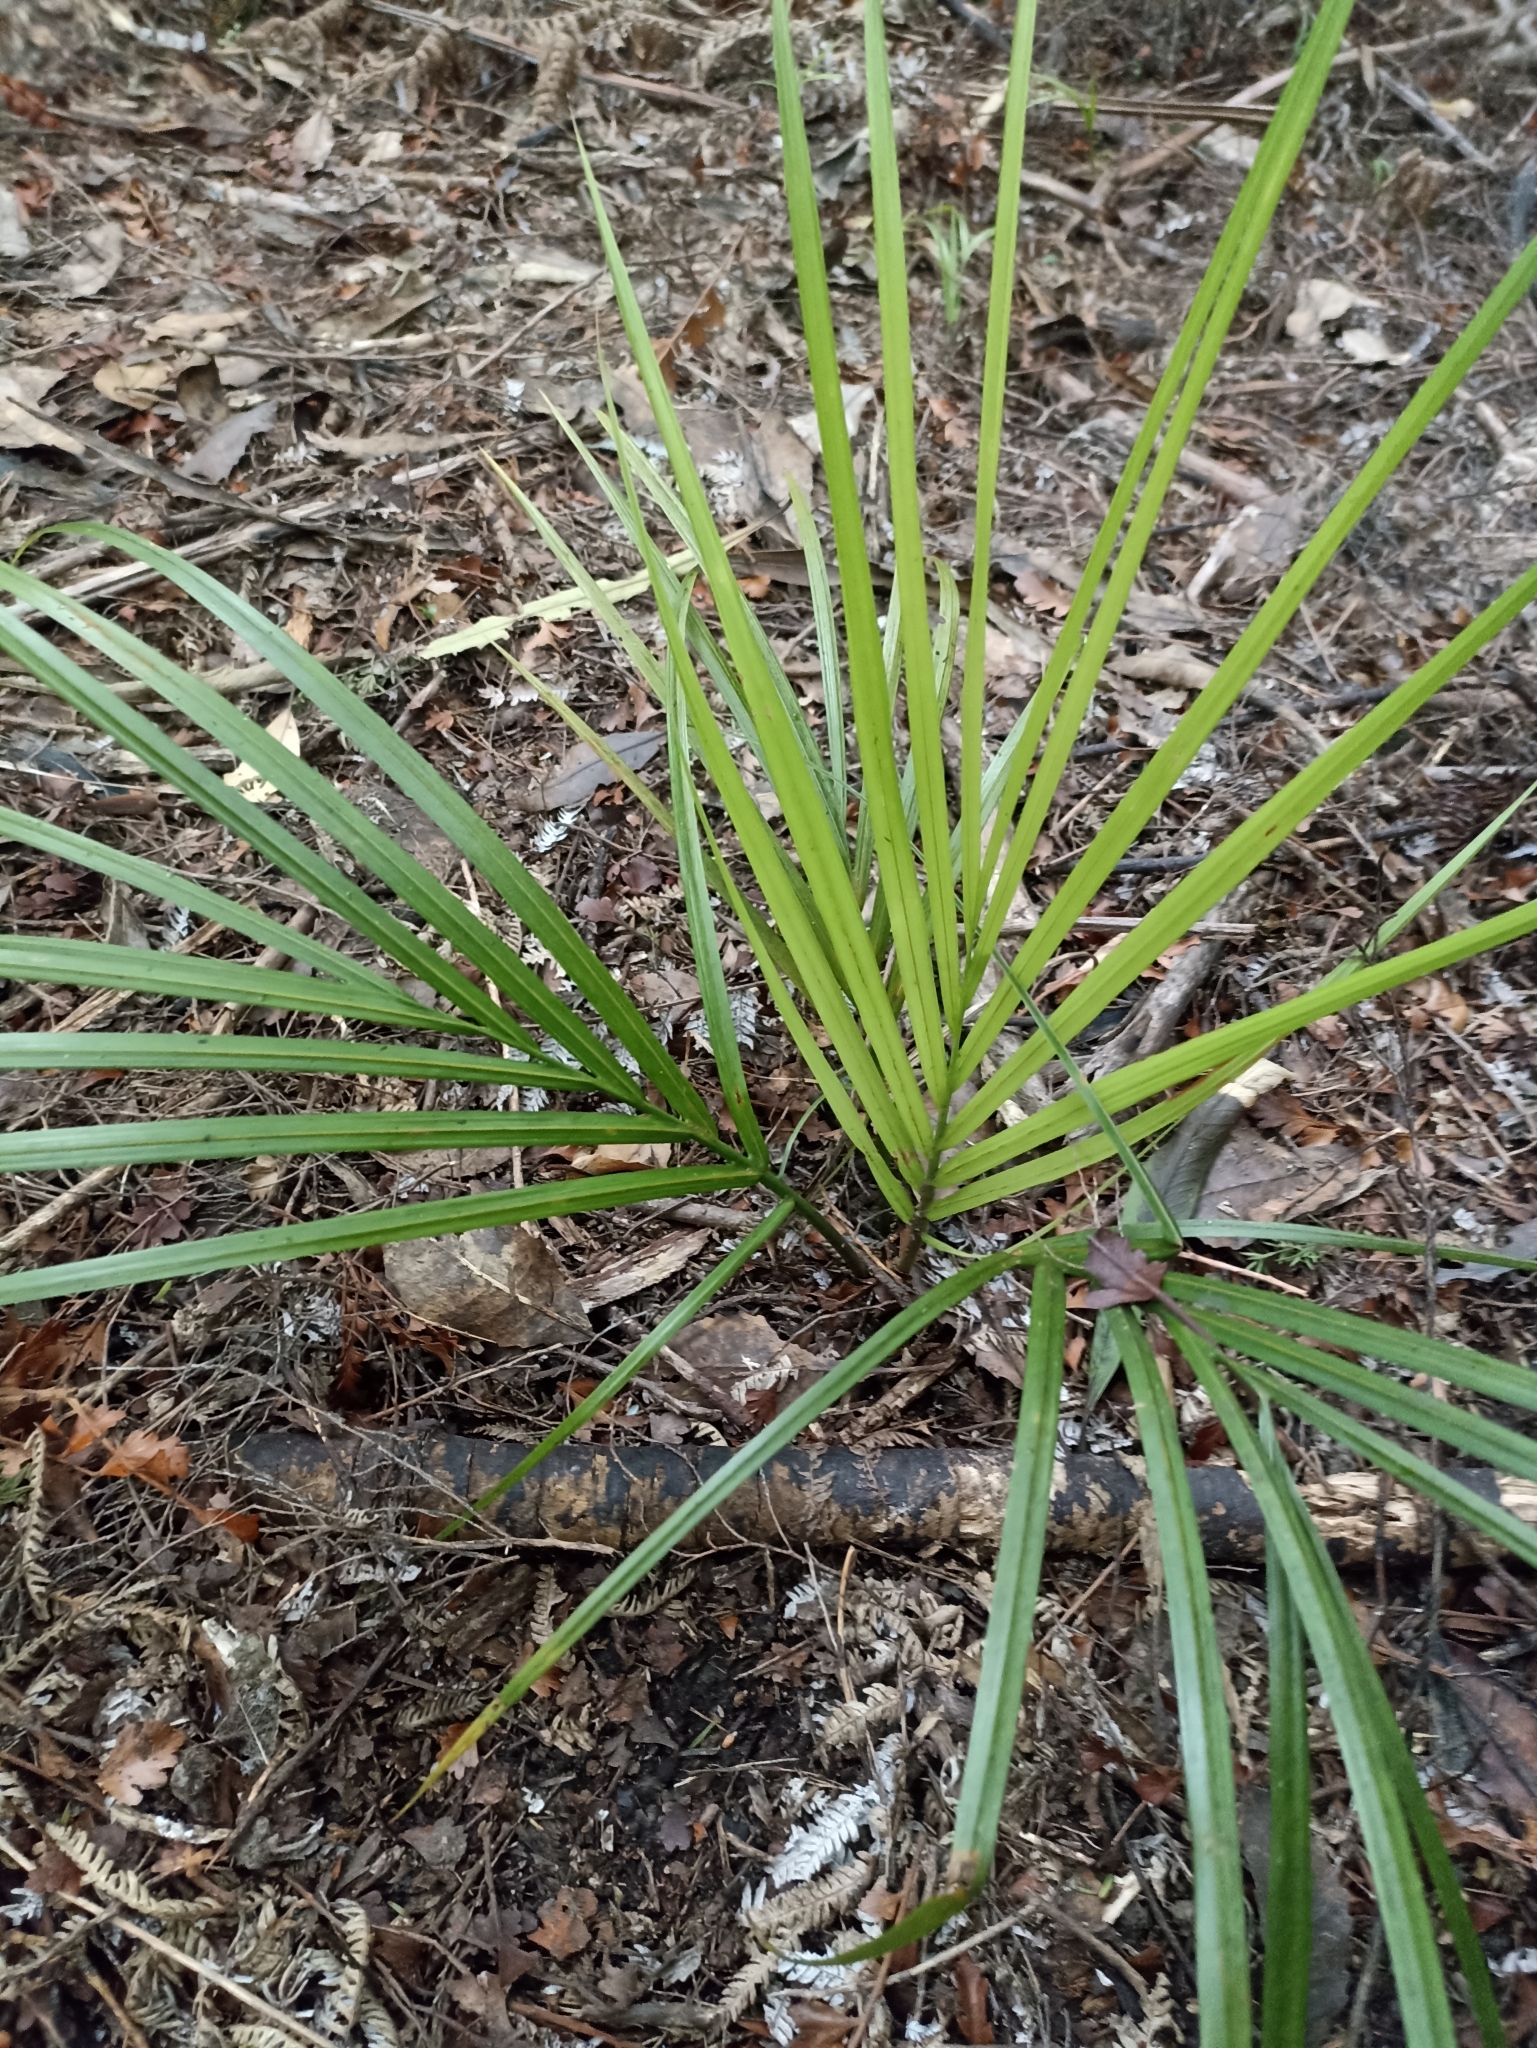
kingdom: Plantae
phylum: Tracheophyta
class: Liliopsida
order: Arecales
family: Arecaceae
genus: Rhopalostylis
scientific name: Rhopalostylis sapida
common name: Feather-duster palm
